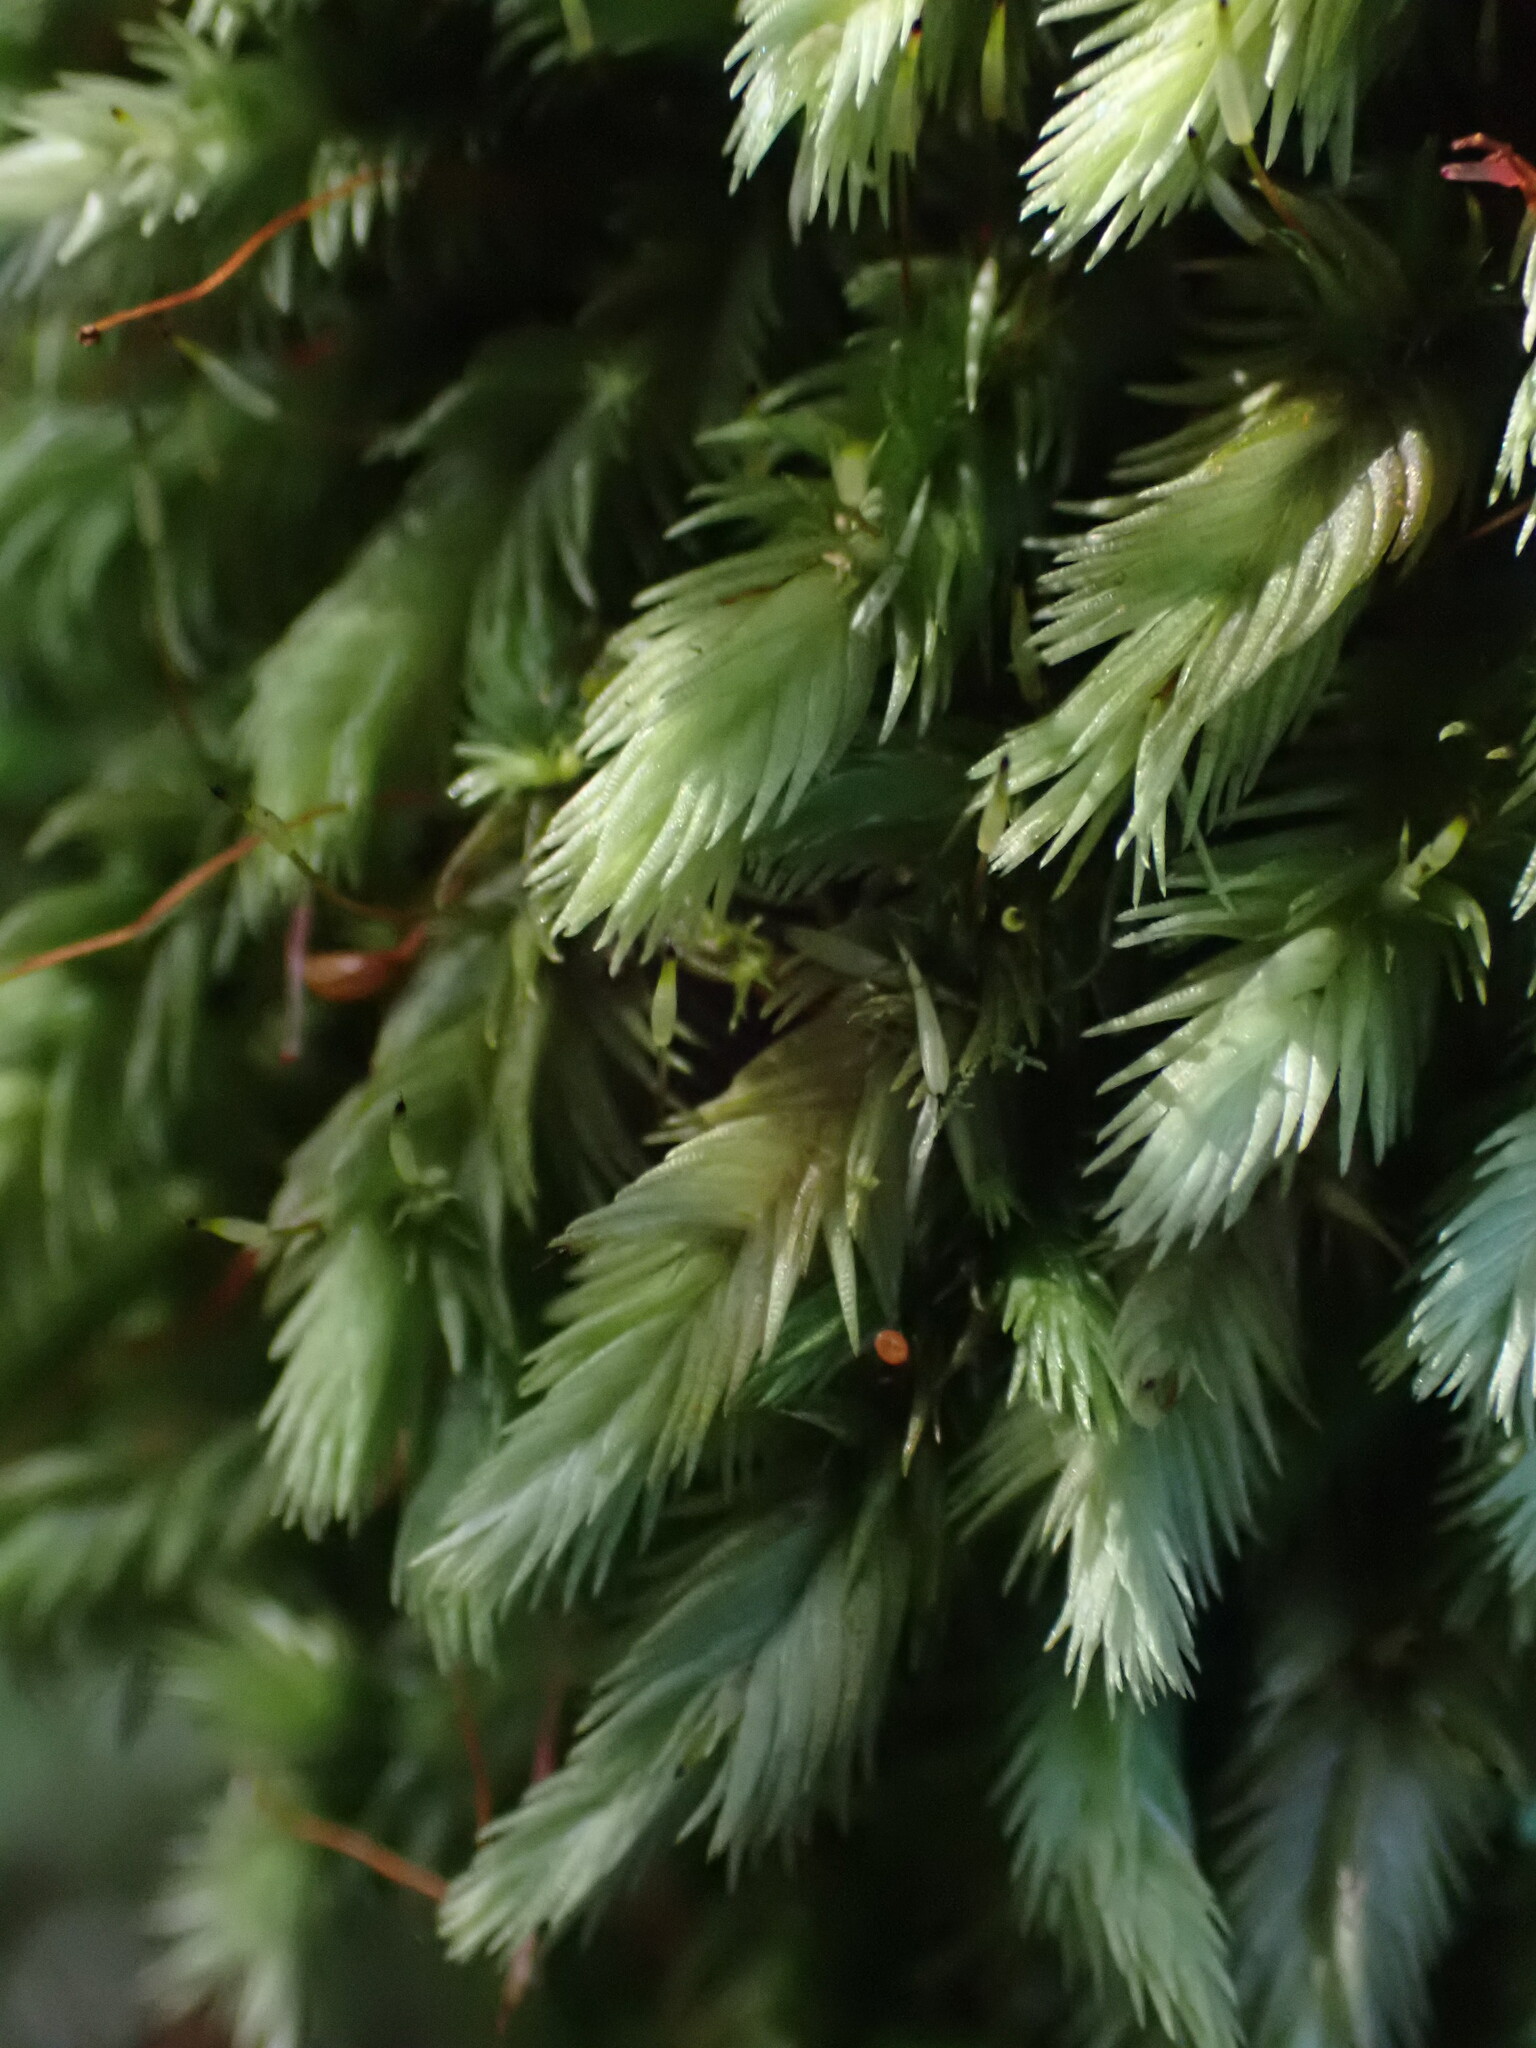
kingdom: Plantae
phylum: Bryophyta
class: Bryopsida
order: Dicranales
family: Leucobryaceae
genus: Leucobryum
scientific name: Leucobryum javense
